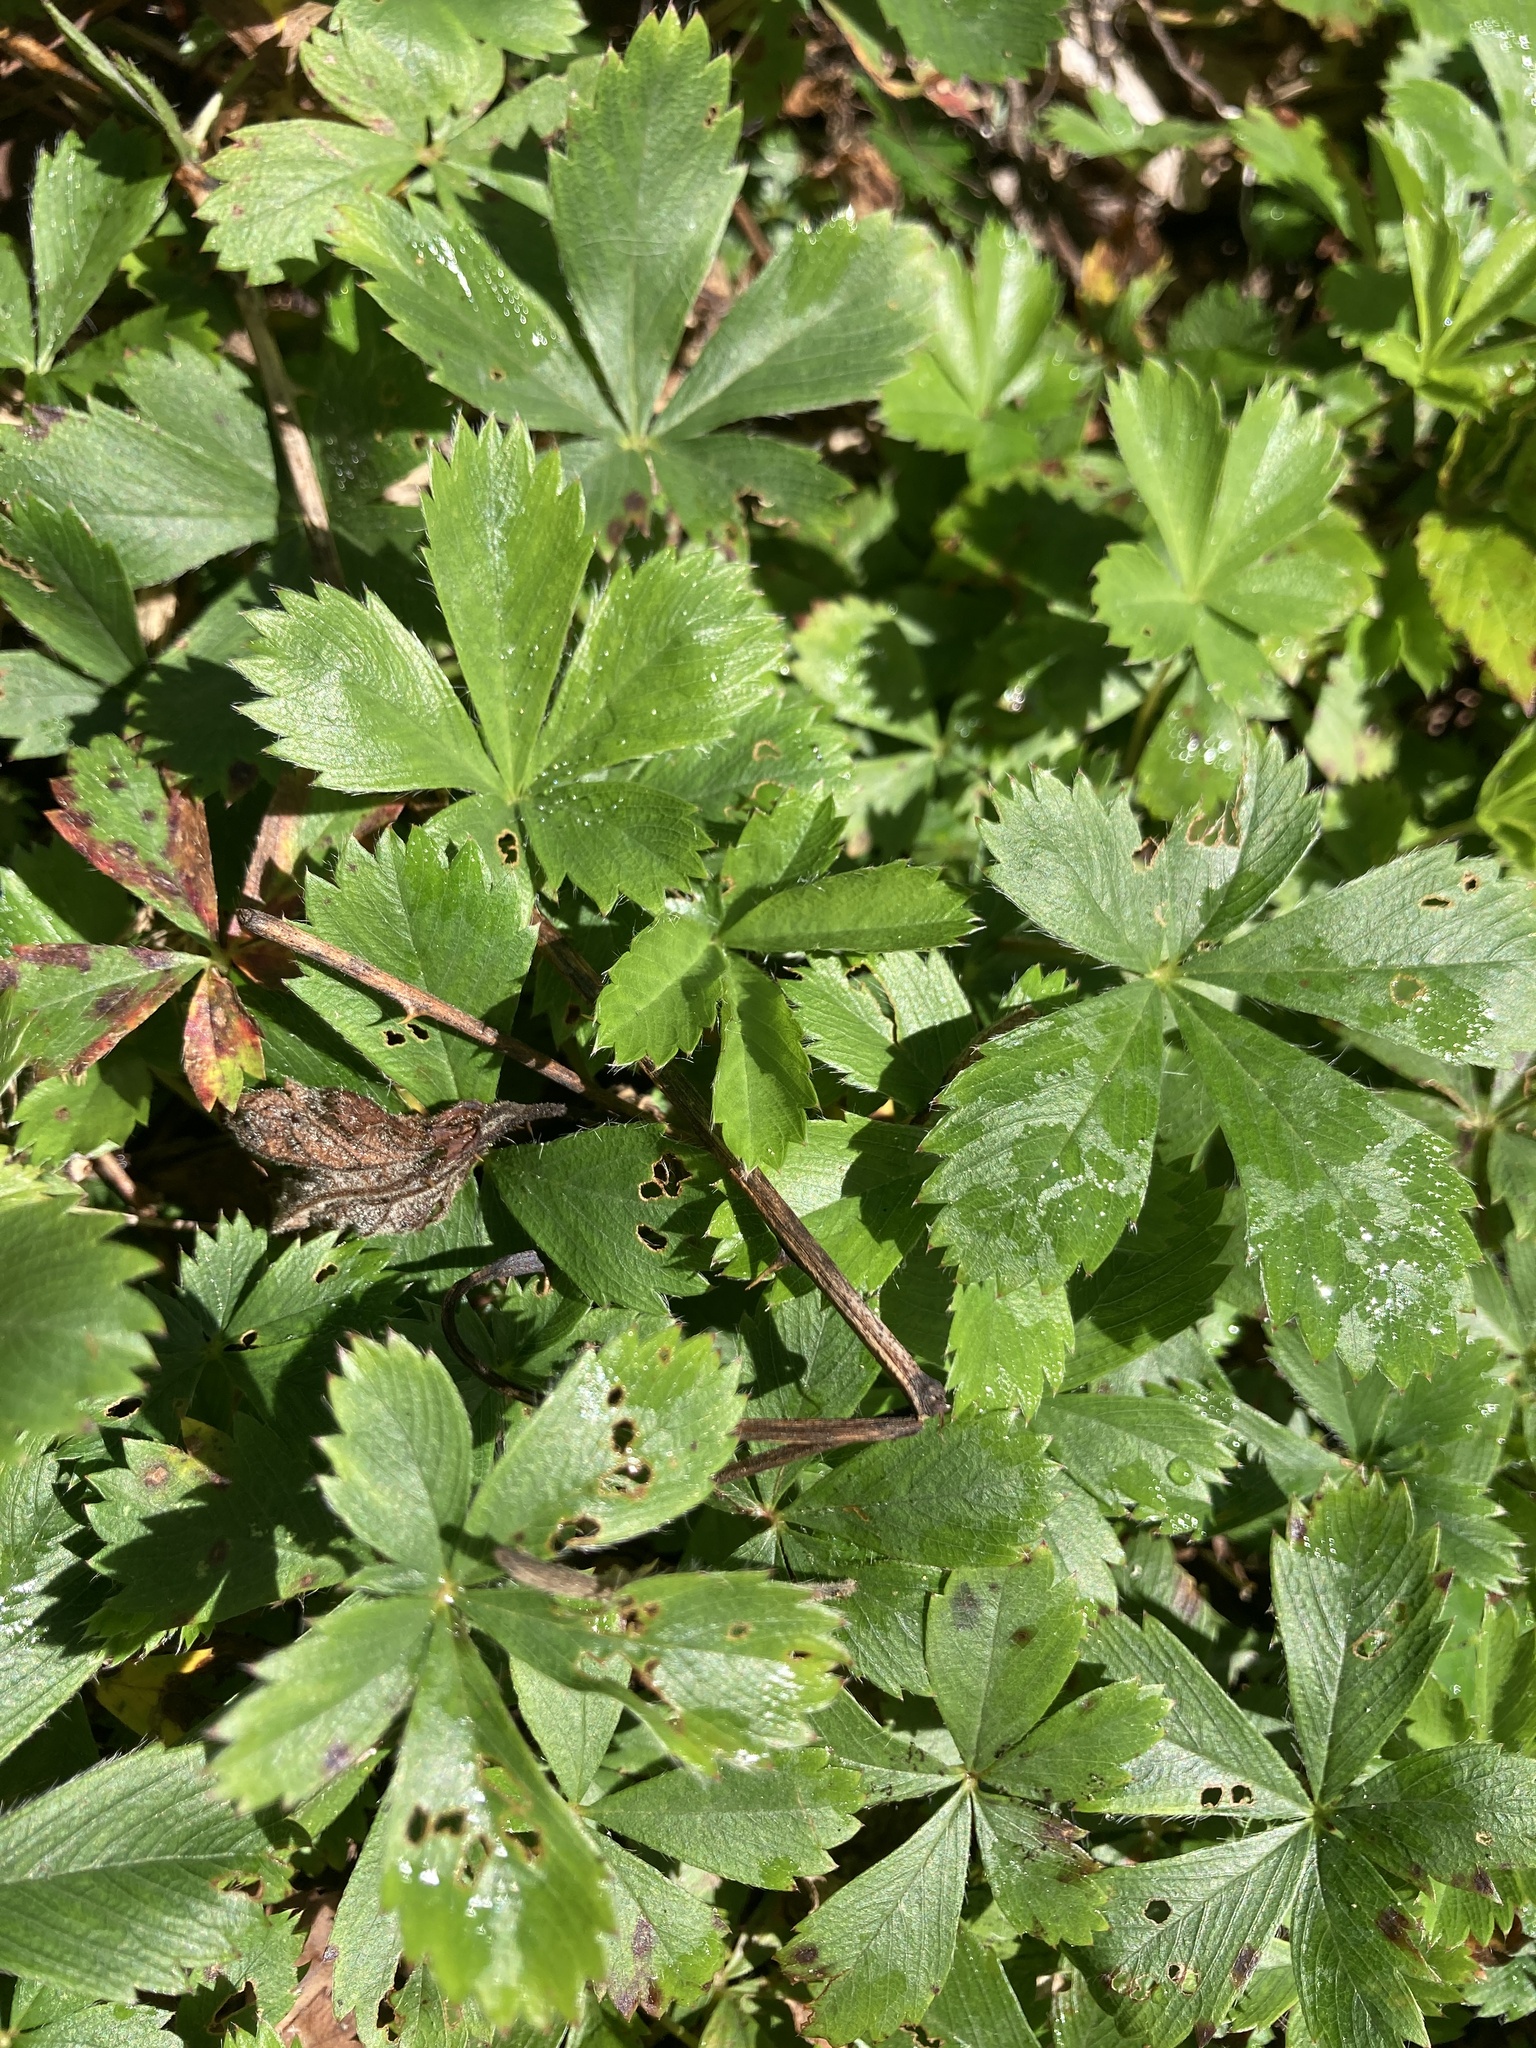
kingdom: Plantae
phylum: Tracheophyta
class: Magnoliopsida
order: Rosales
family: Rosaceae
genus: Potentilla
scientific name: Potentilla simplex
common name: Old field cinquefoil
